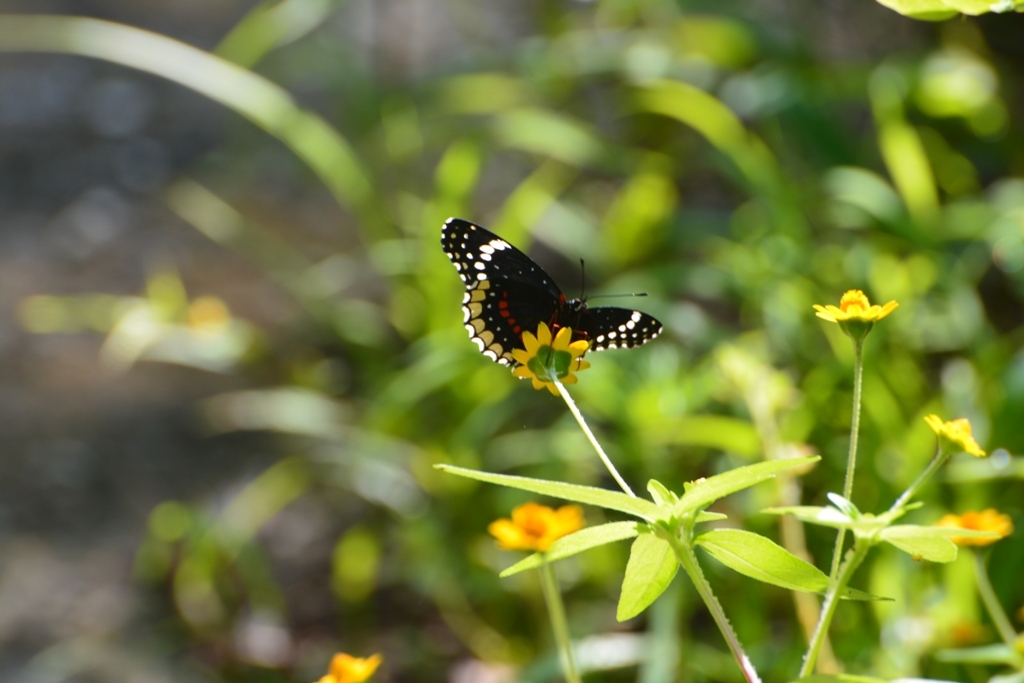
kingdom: Animalia
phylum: Arthropoda
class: Insecta
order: Lepidoptera
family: Nymphalidae
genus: Chlosyne
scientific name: Chlosyne hippodrome
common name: Simple patch
